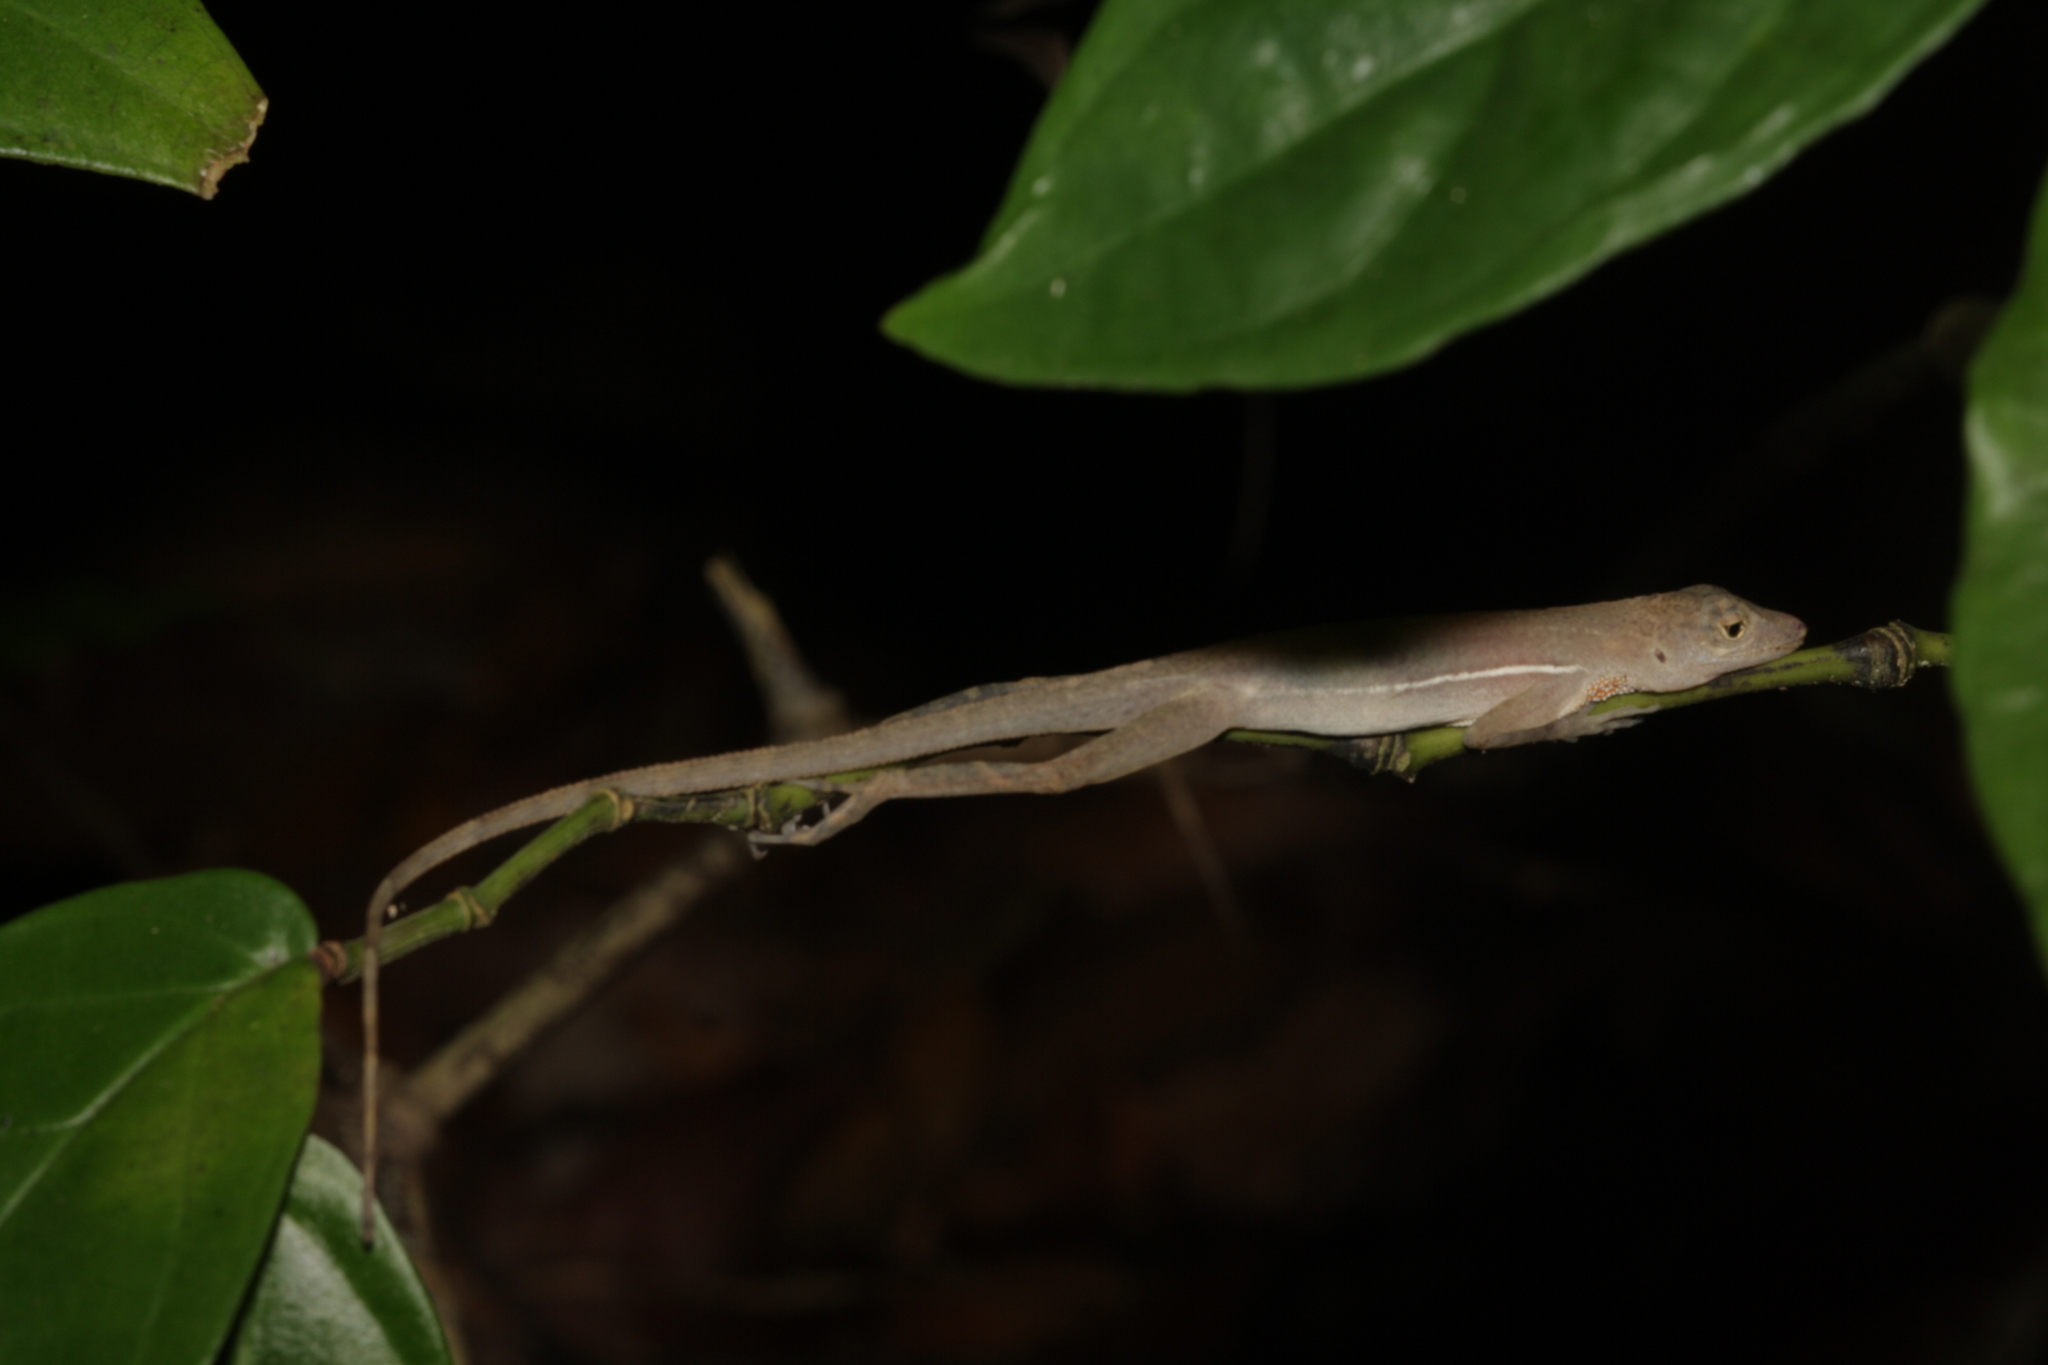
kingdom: Animalia
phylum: Chordata
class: Squamata
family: Dactyloidae
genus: Anolis
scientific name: Anolis osa
